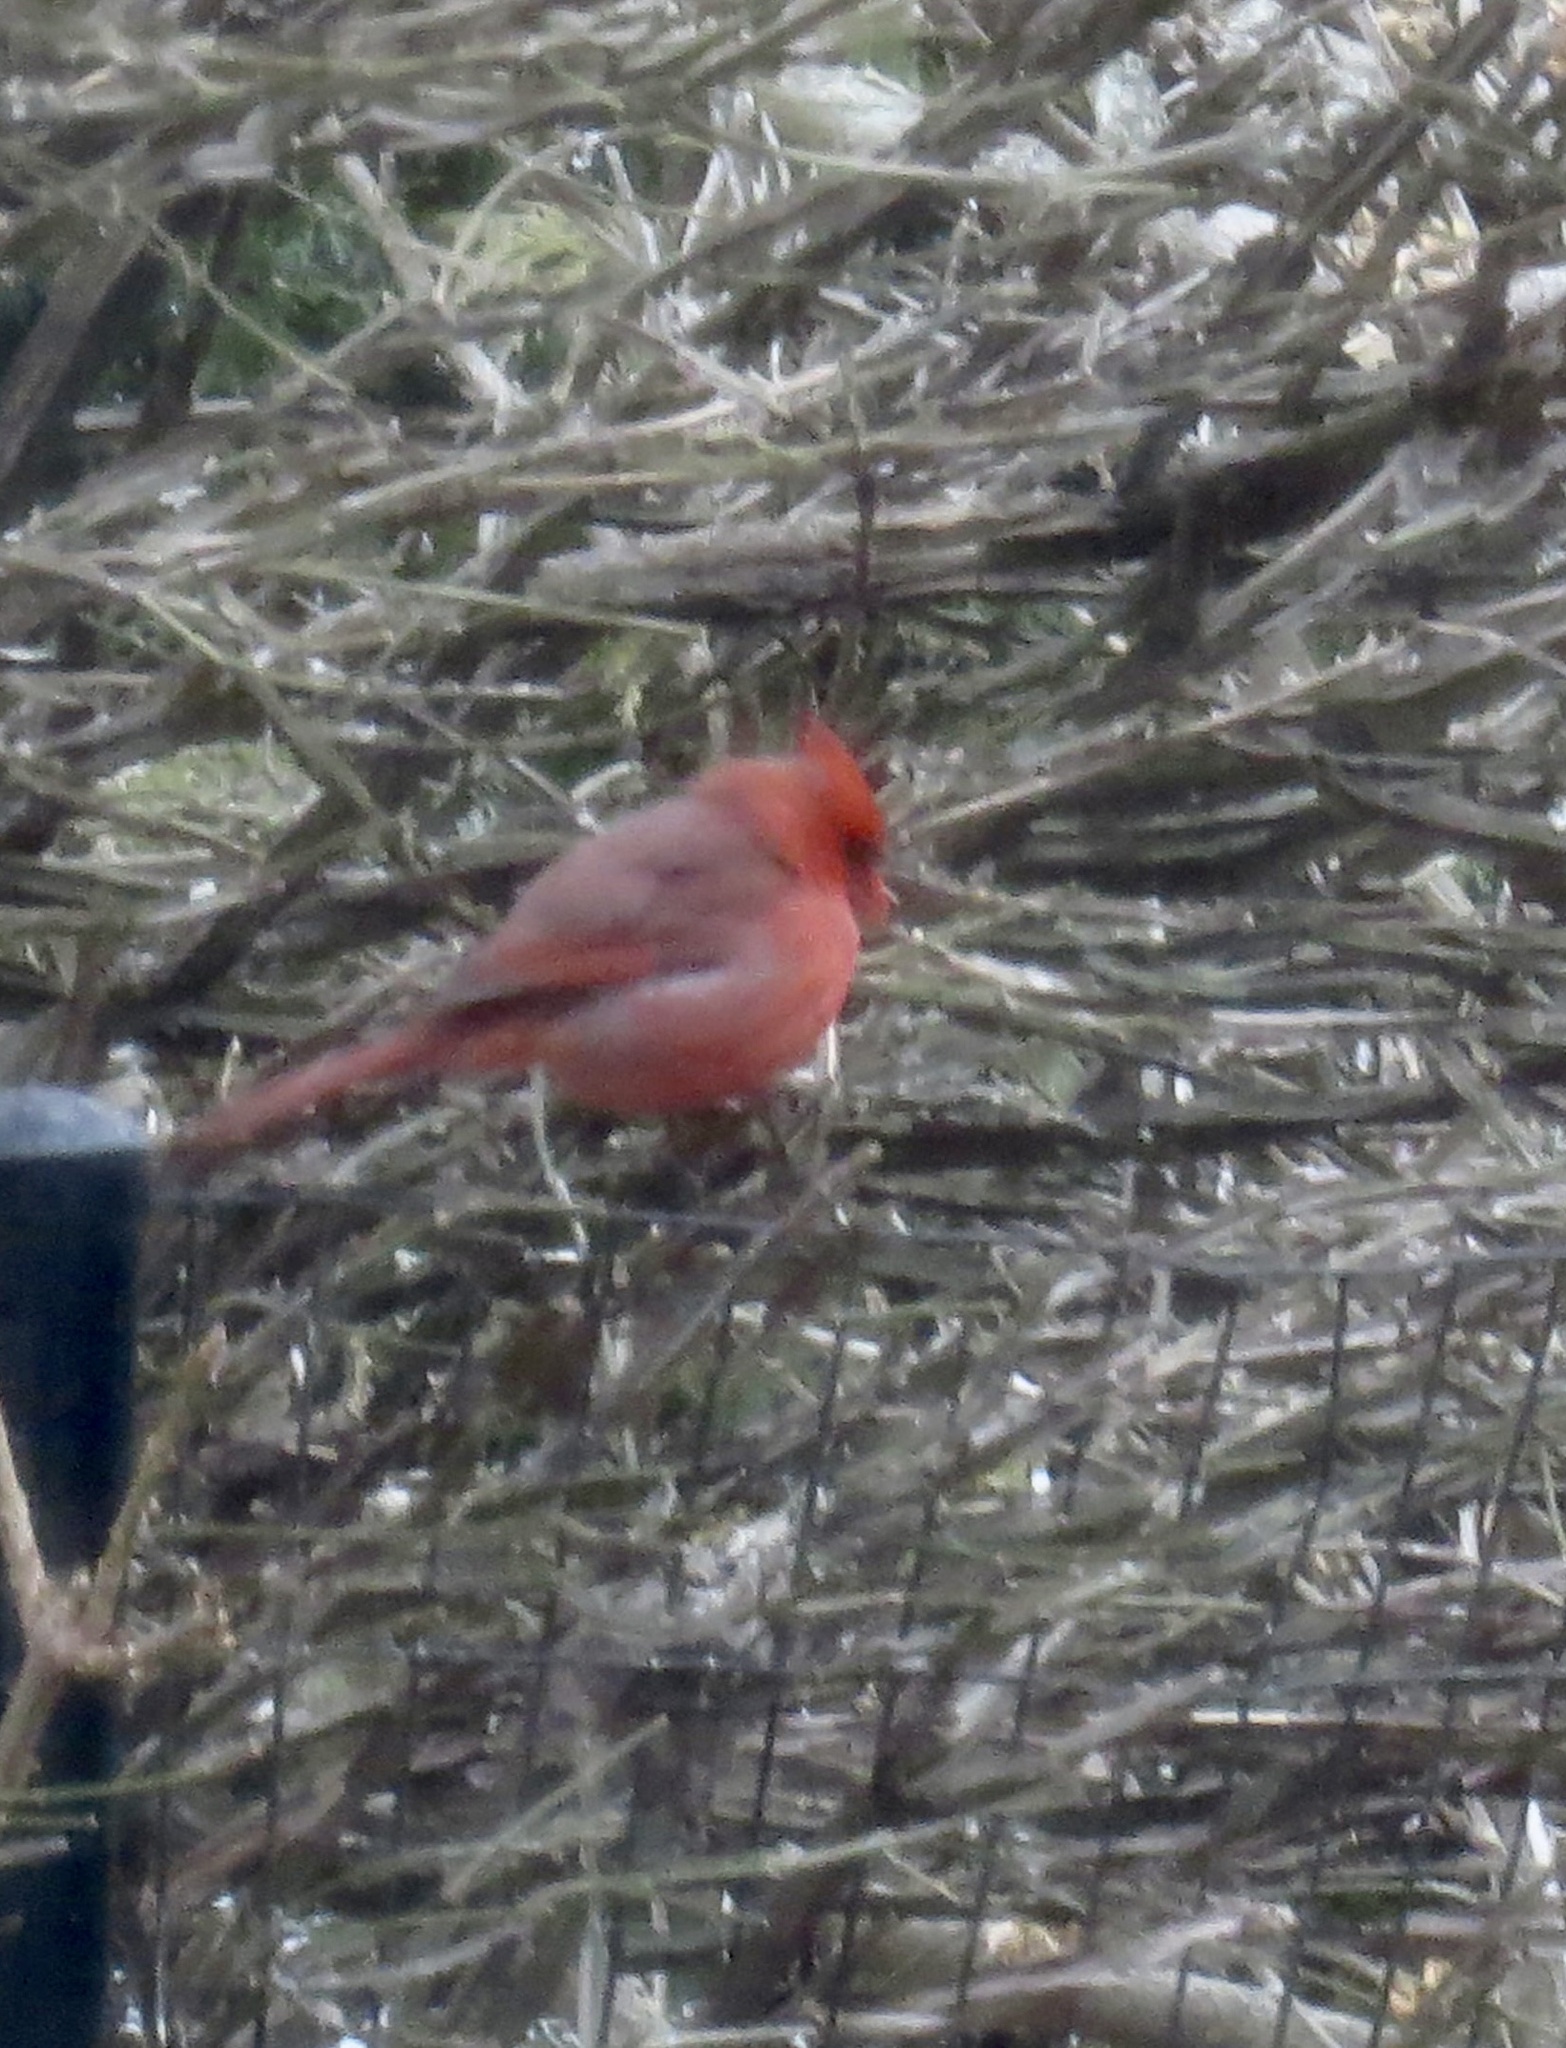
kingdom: Animalia
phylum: Chordata
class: Aves
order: Passeriformes
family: Cardinalidae
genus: Cardinalis
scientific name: Cardinalis cardinalis
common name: Northern cardinal
